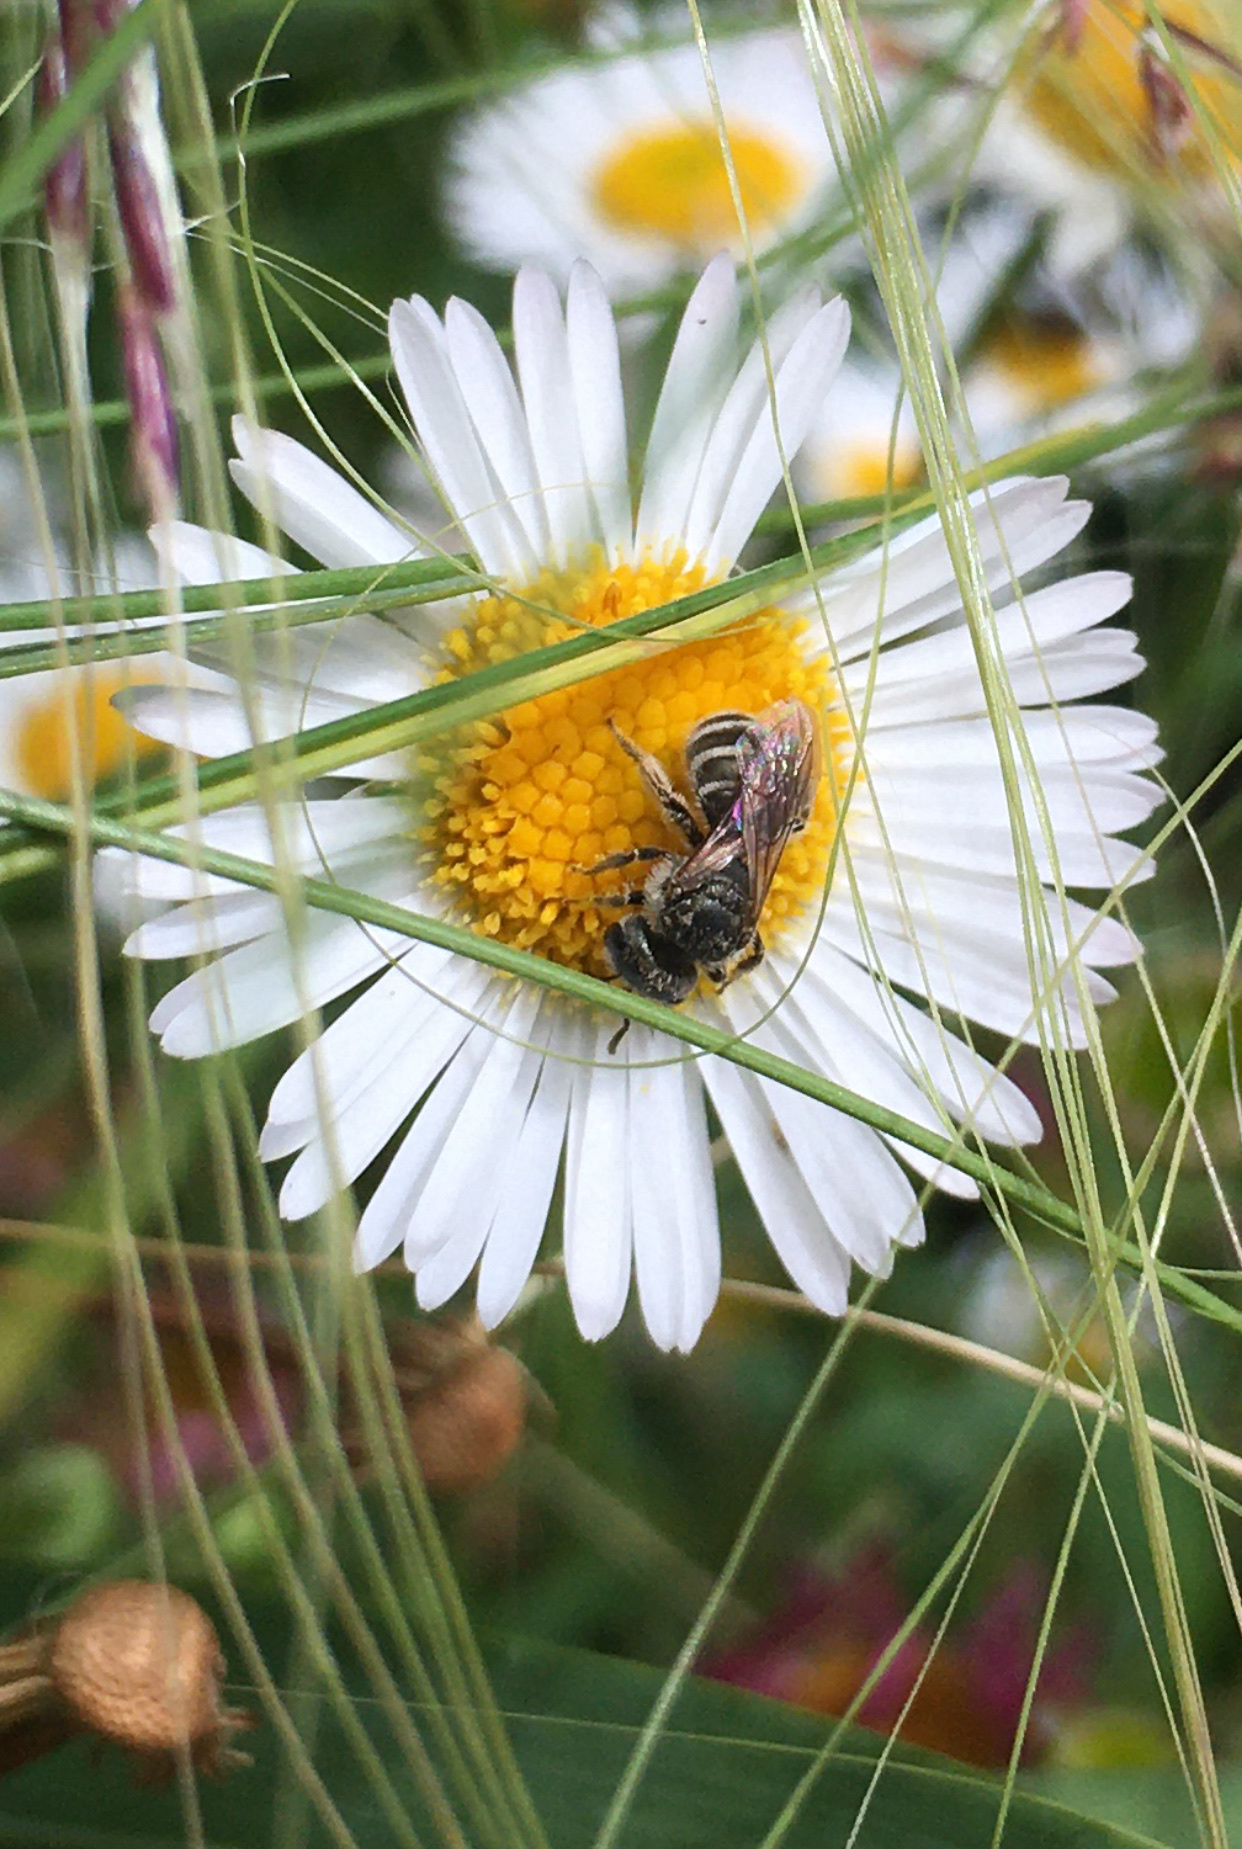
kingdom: Animalia
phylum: Arthropoda
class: Insecta
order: Hymenoptera
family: Halictidae
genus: Halictus
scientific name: Halictus tripartitus
